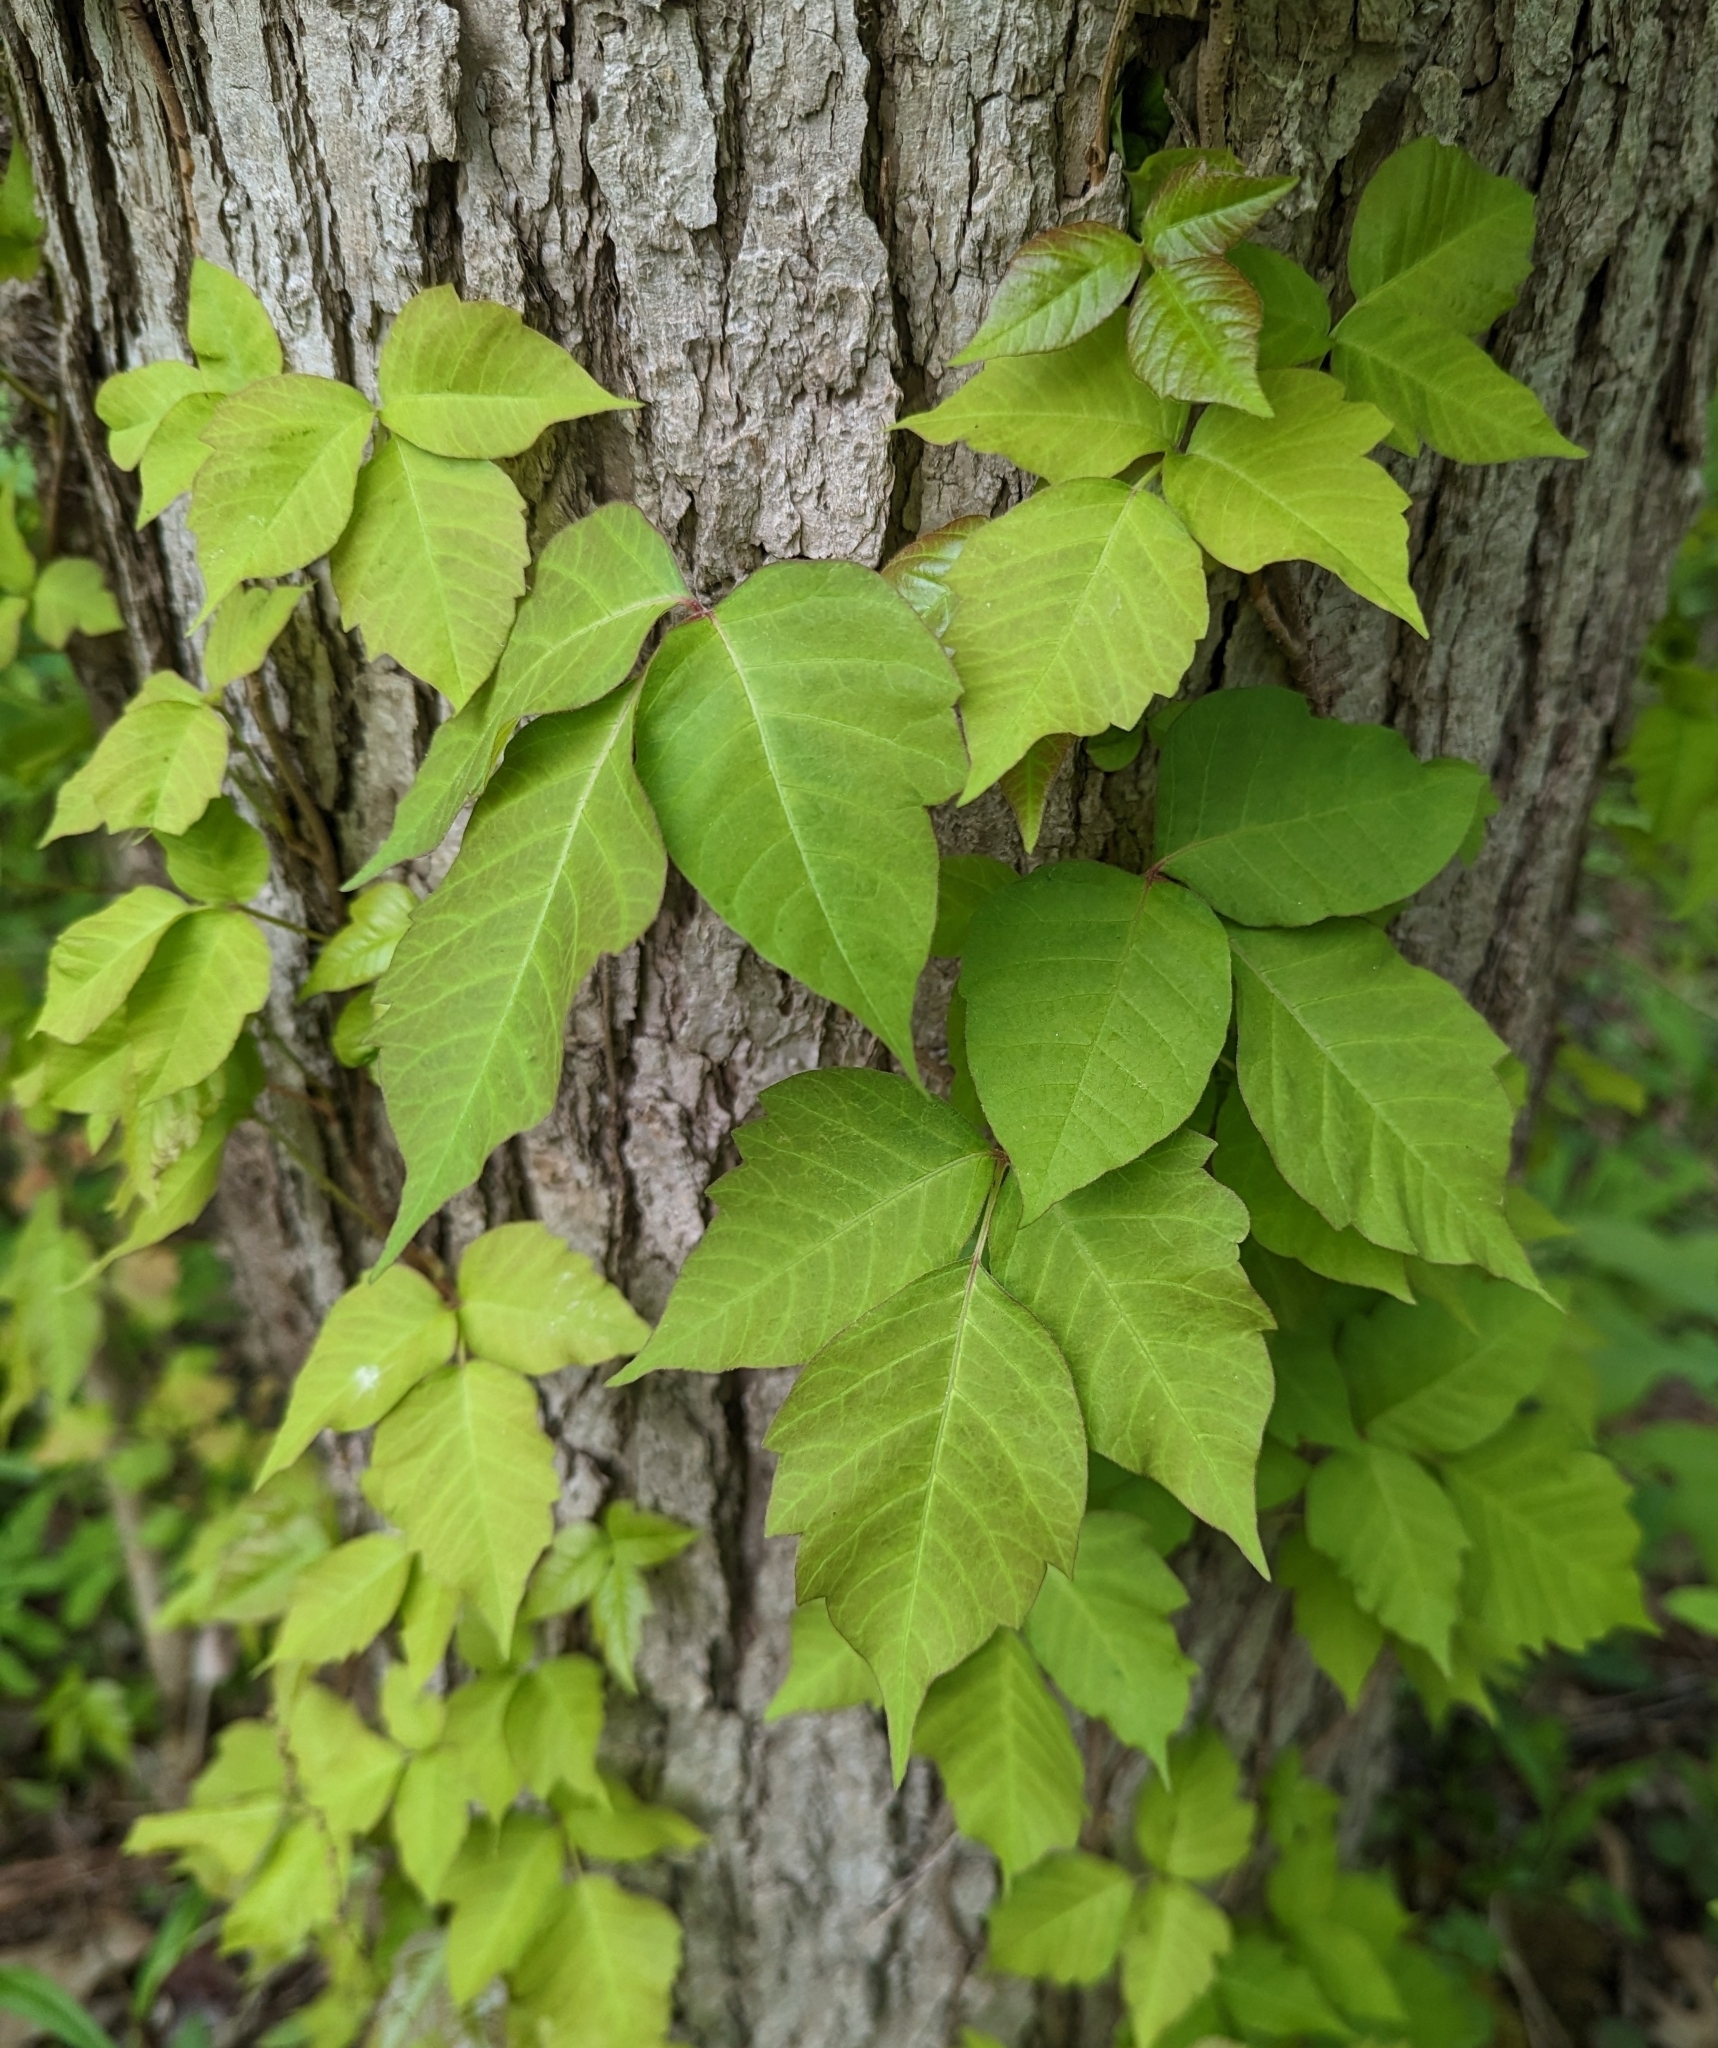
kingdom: Plantae
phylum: Tracheophyta
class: Magnoliopsida
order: Sapindales
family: Anacardiaceae
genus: Toxicodendron
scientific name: Toxicodendron radicans
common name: Poison ivy
